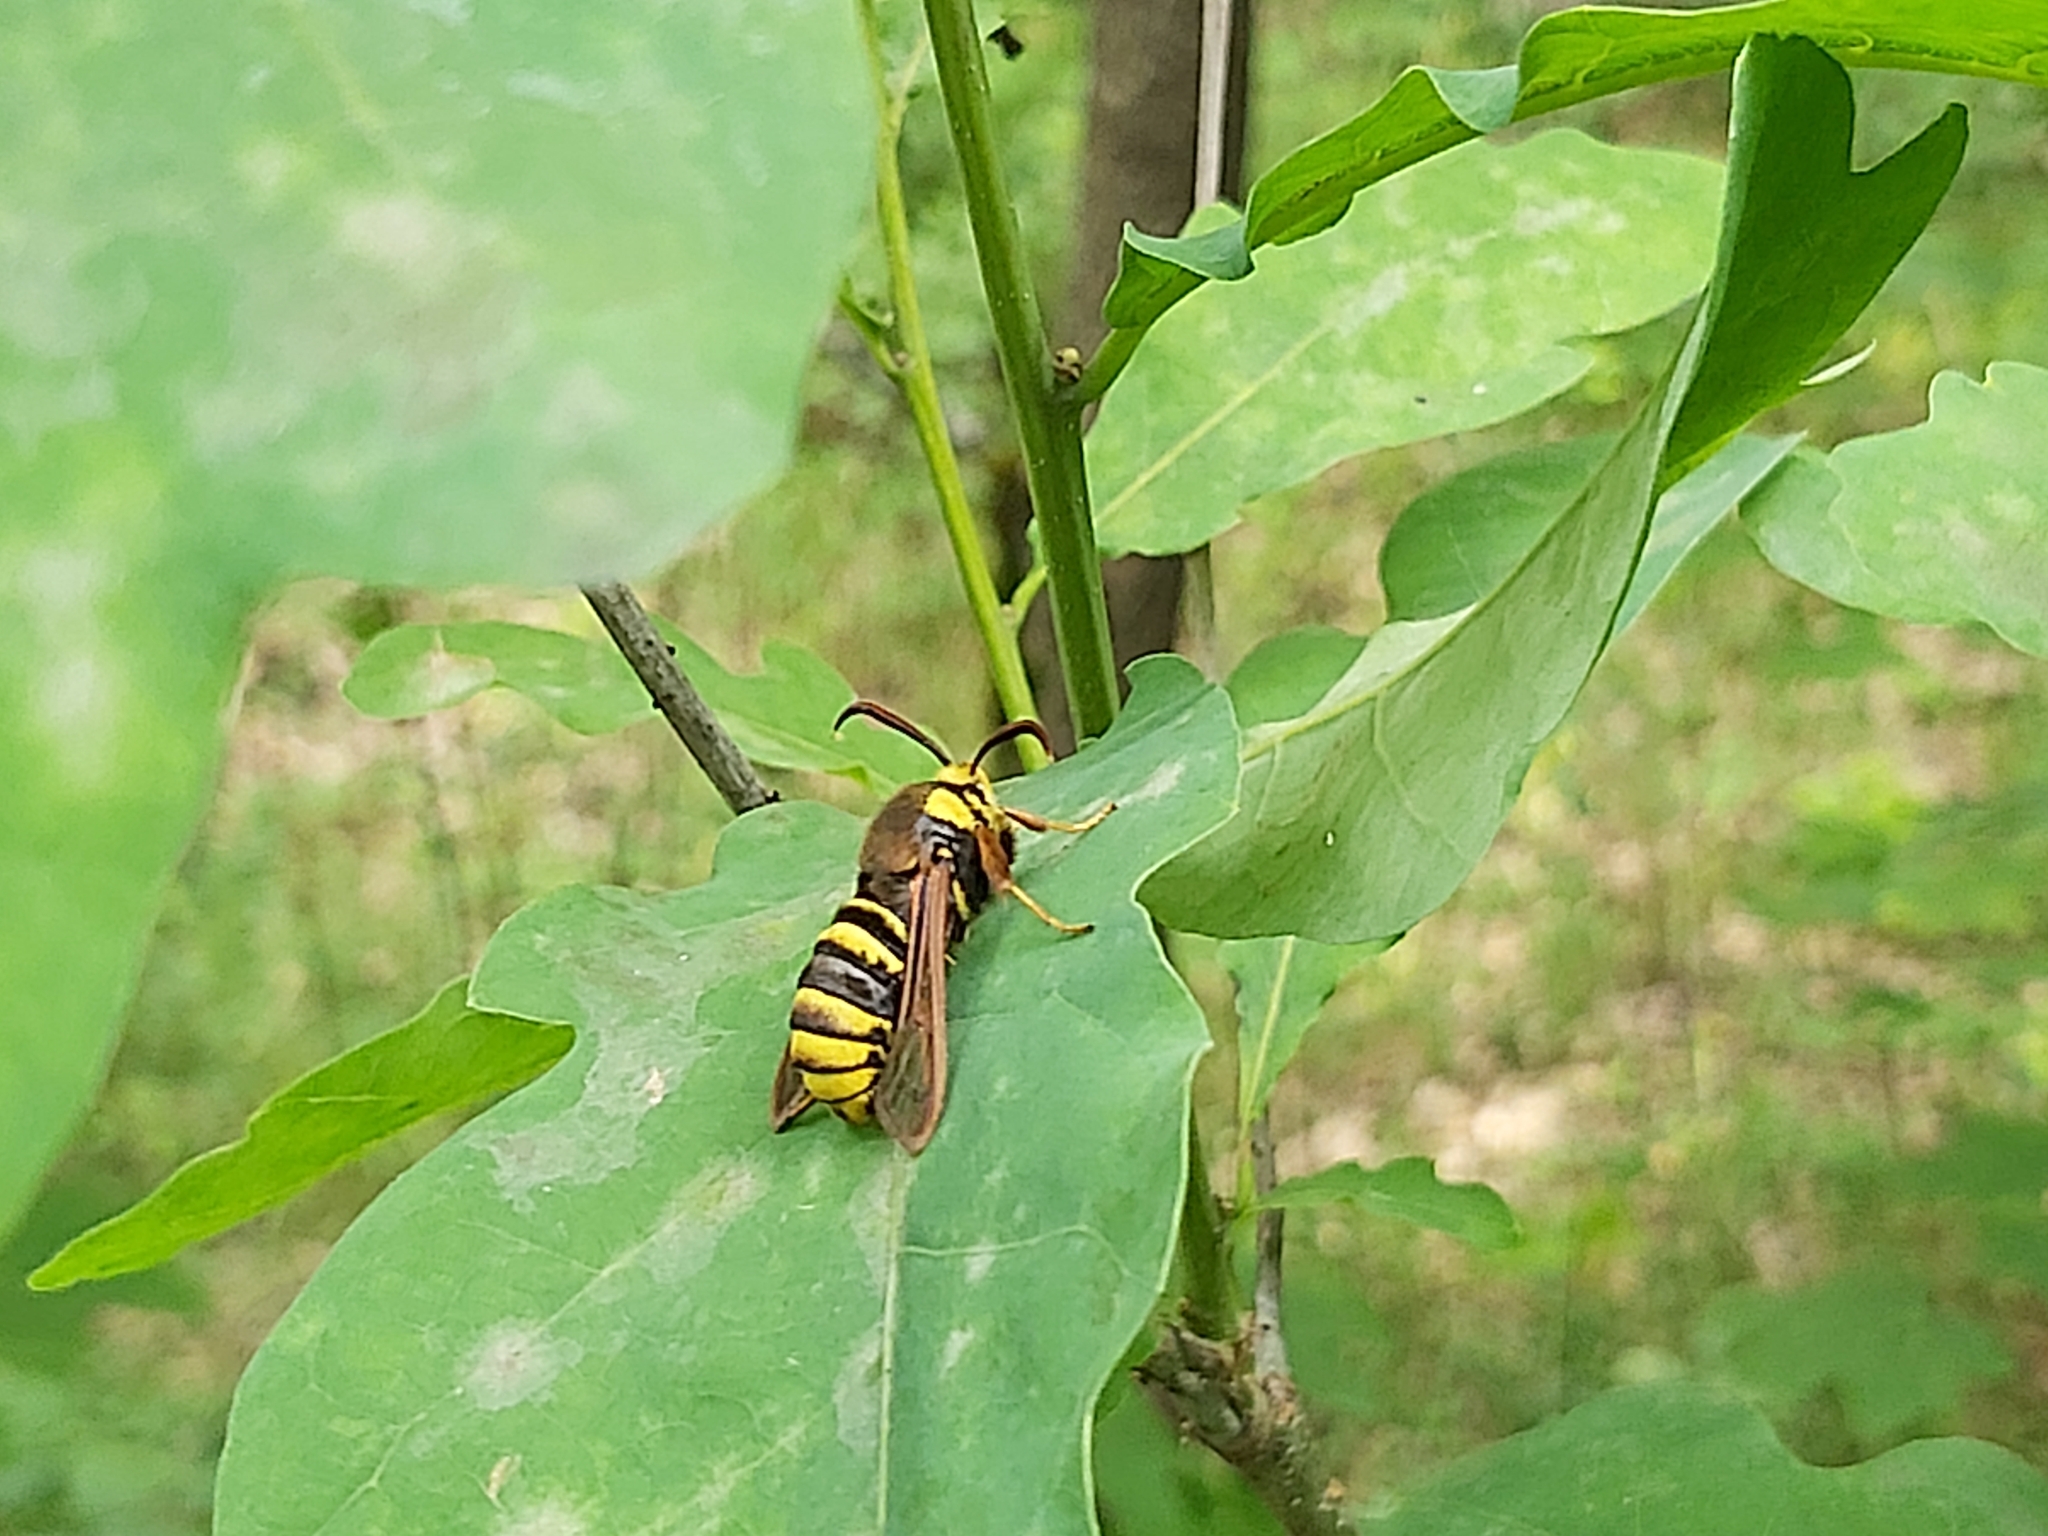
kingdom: Animalia
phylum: Arthropoda
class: Insecta
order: Lepidoptera
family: Sesiidae
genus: Sesia
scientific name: Sesia apiformis
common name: Hornet moth
